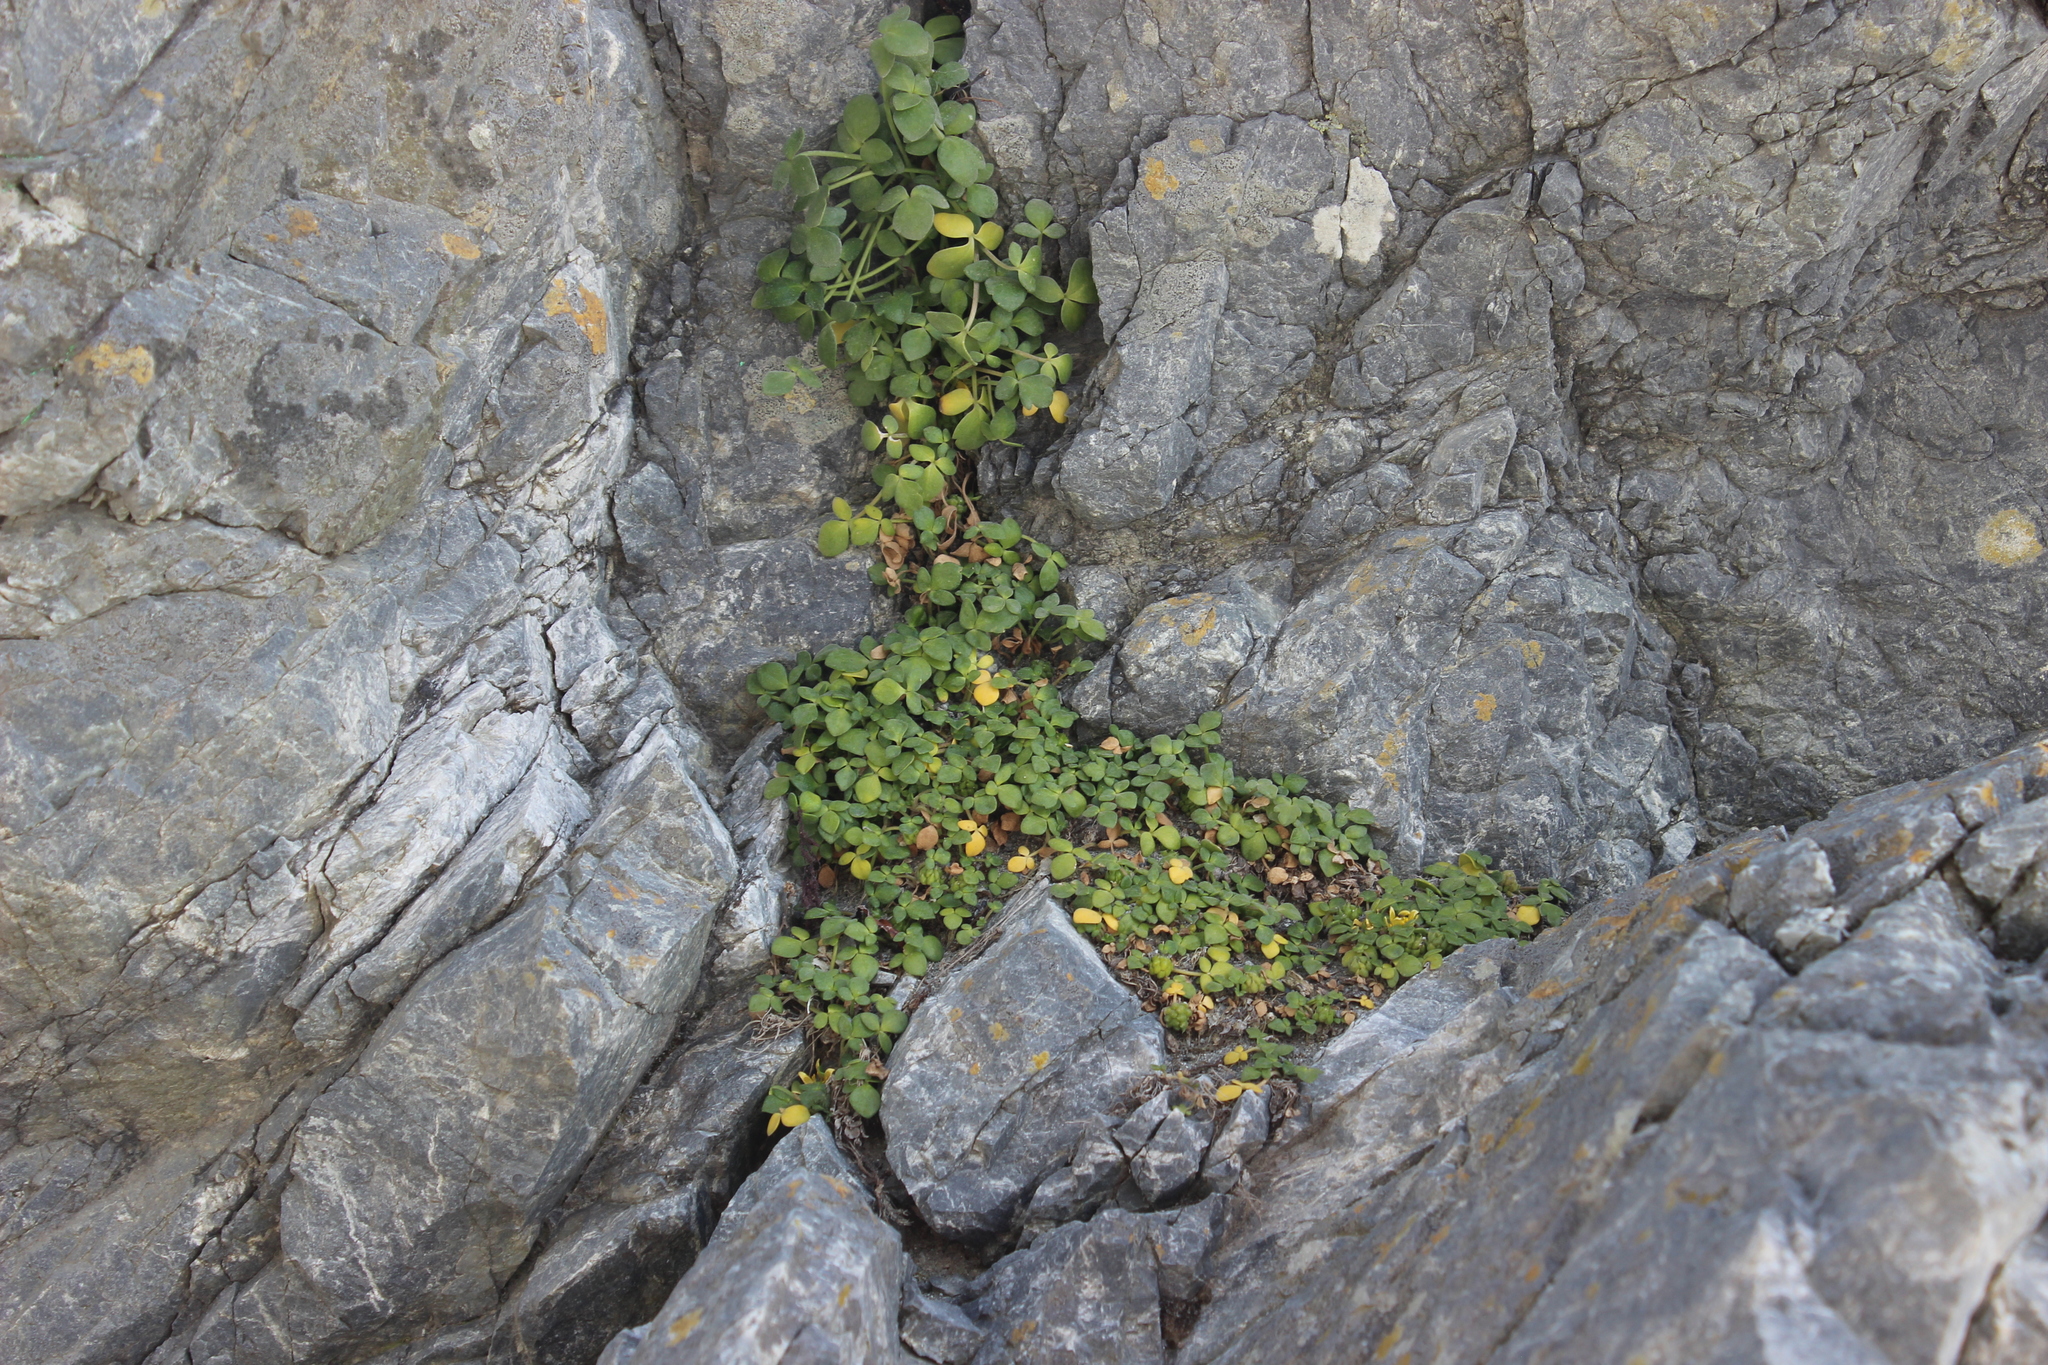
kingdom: Plantae
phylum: Tracheophyta
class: Magnoliopsida
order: Ranunculales
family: Ranunculaceae
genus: Ranunculus
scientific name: Ranunculus acaulis
